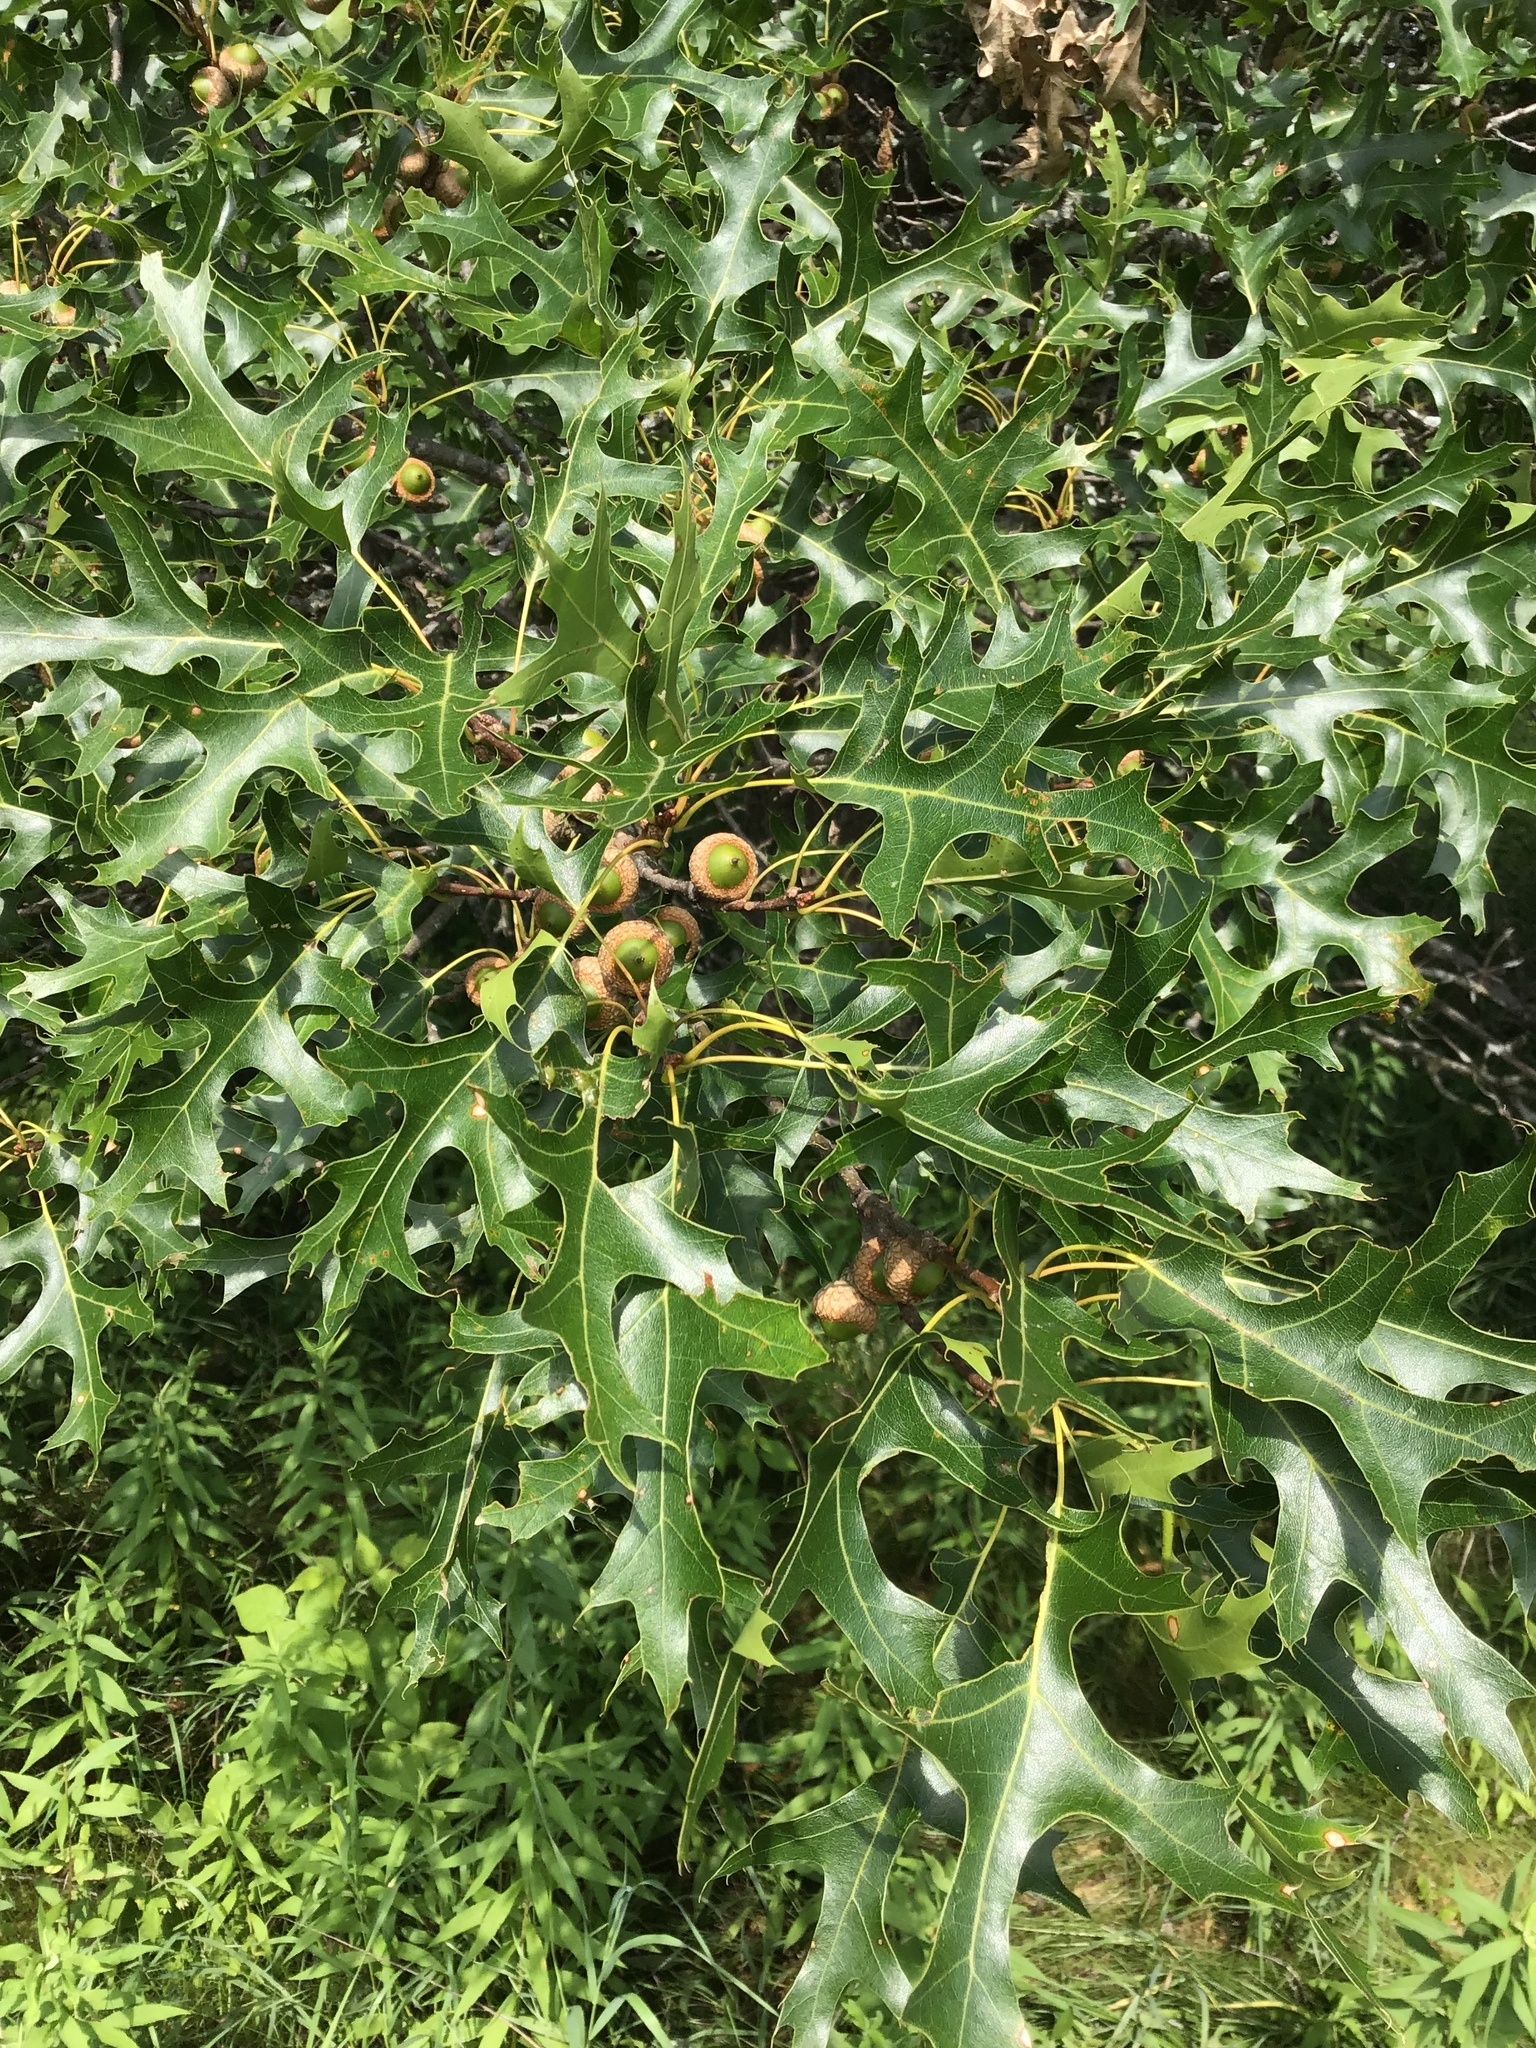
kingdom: Plantae
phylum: Tracheophyta
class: Magnoliopsida
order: Fagales
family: Fagaceae
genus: Quercus
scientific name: Quercus ellipsoidalis
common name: Hill's oak
